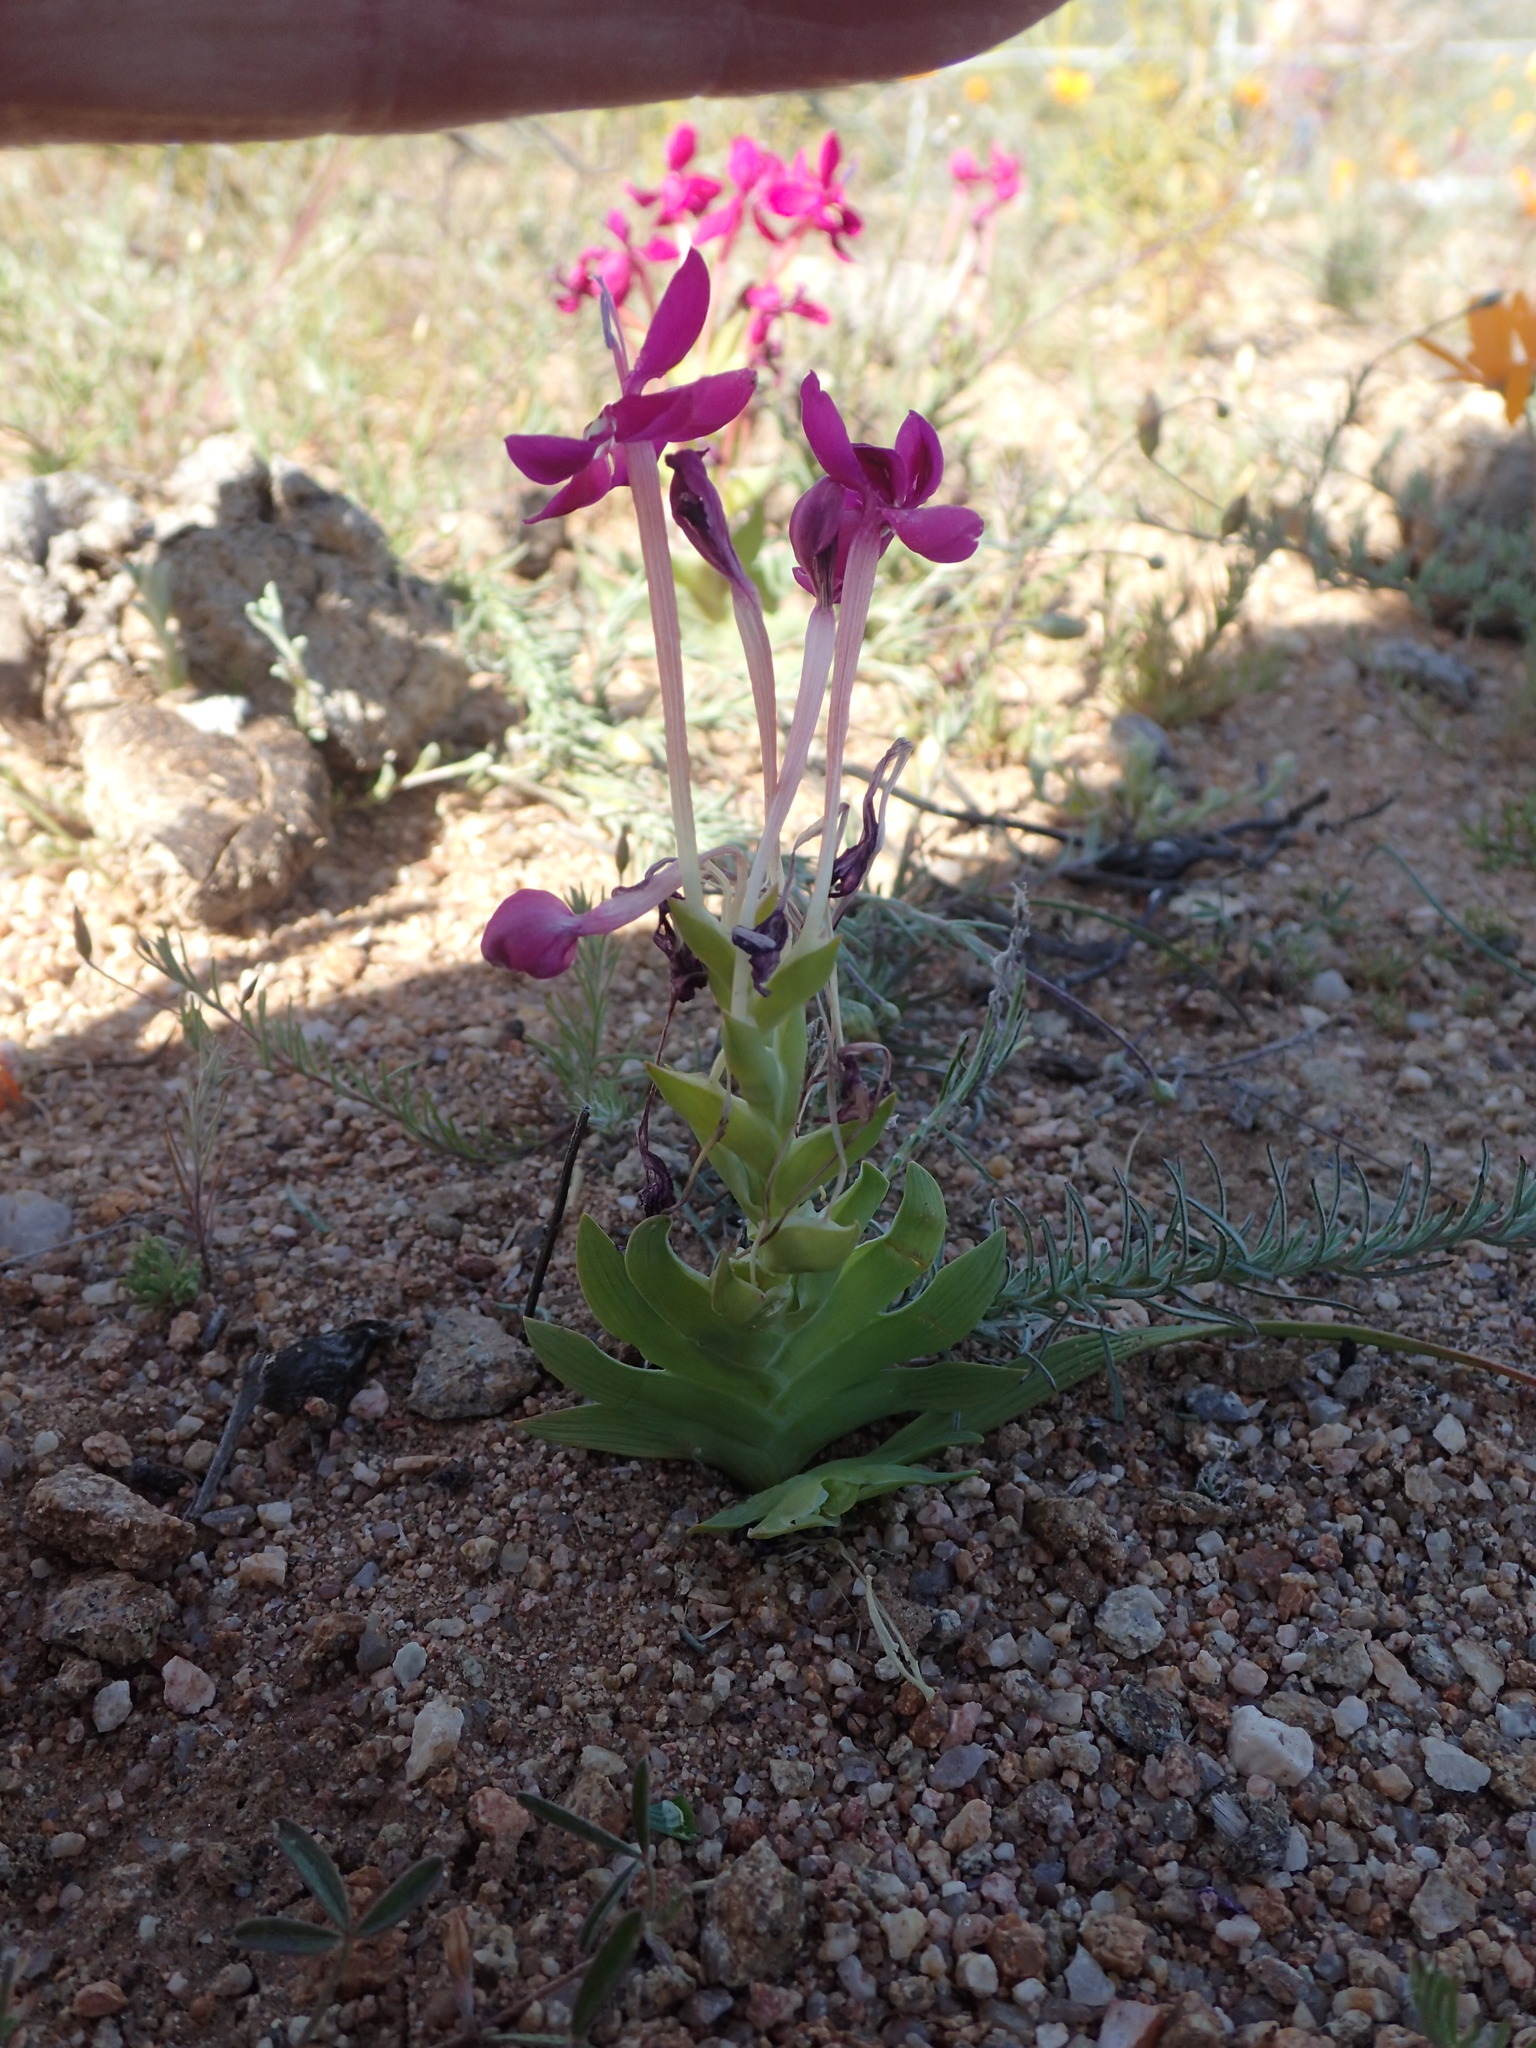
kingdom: Plantae
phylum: Tracheophyta
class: Liliopsida
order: Asparagales
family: Iridaceae
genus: Lapeirousia
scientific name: Lapeirousia silenoides
